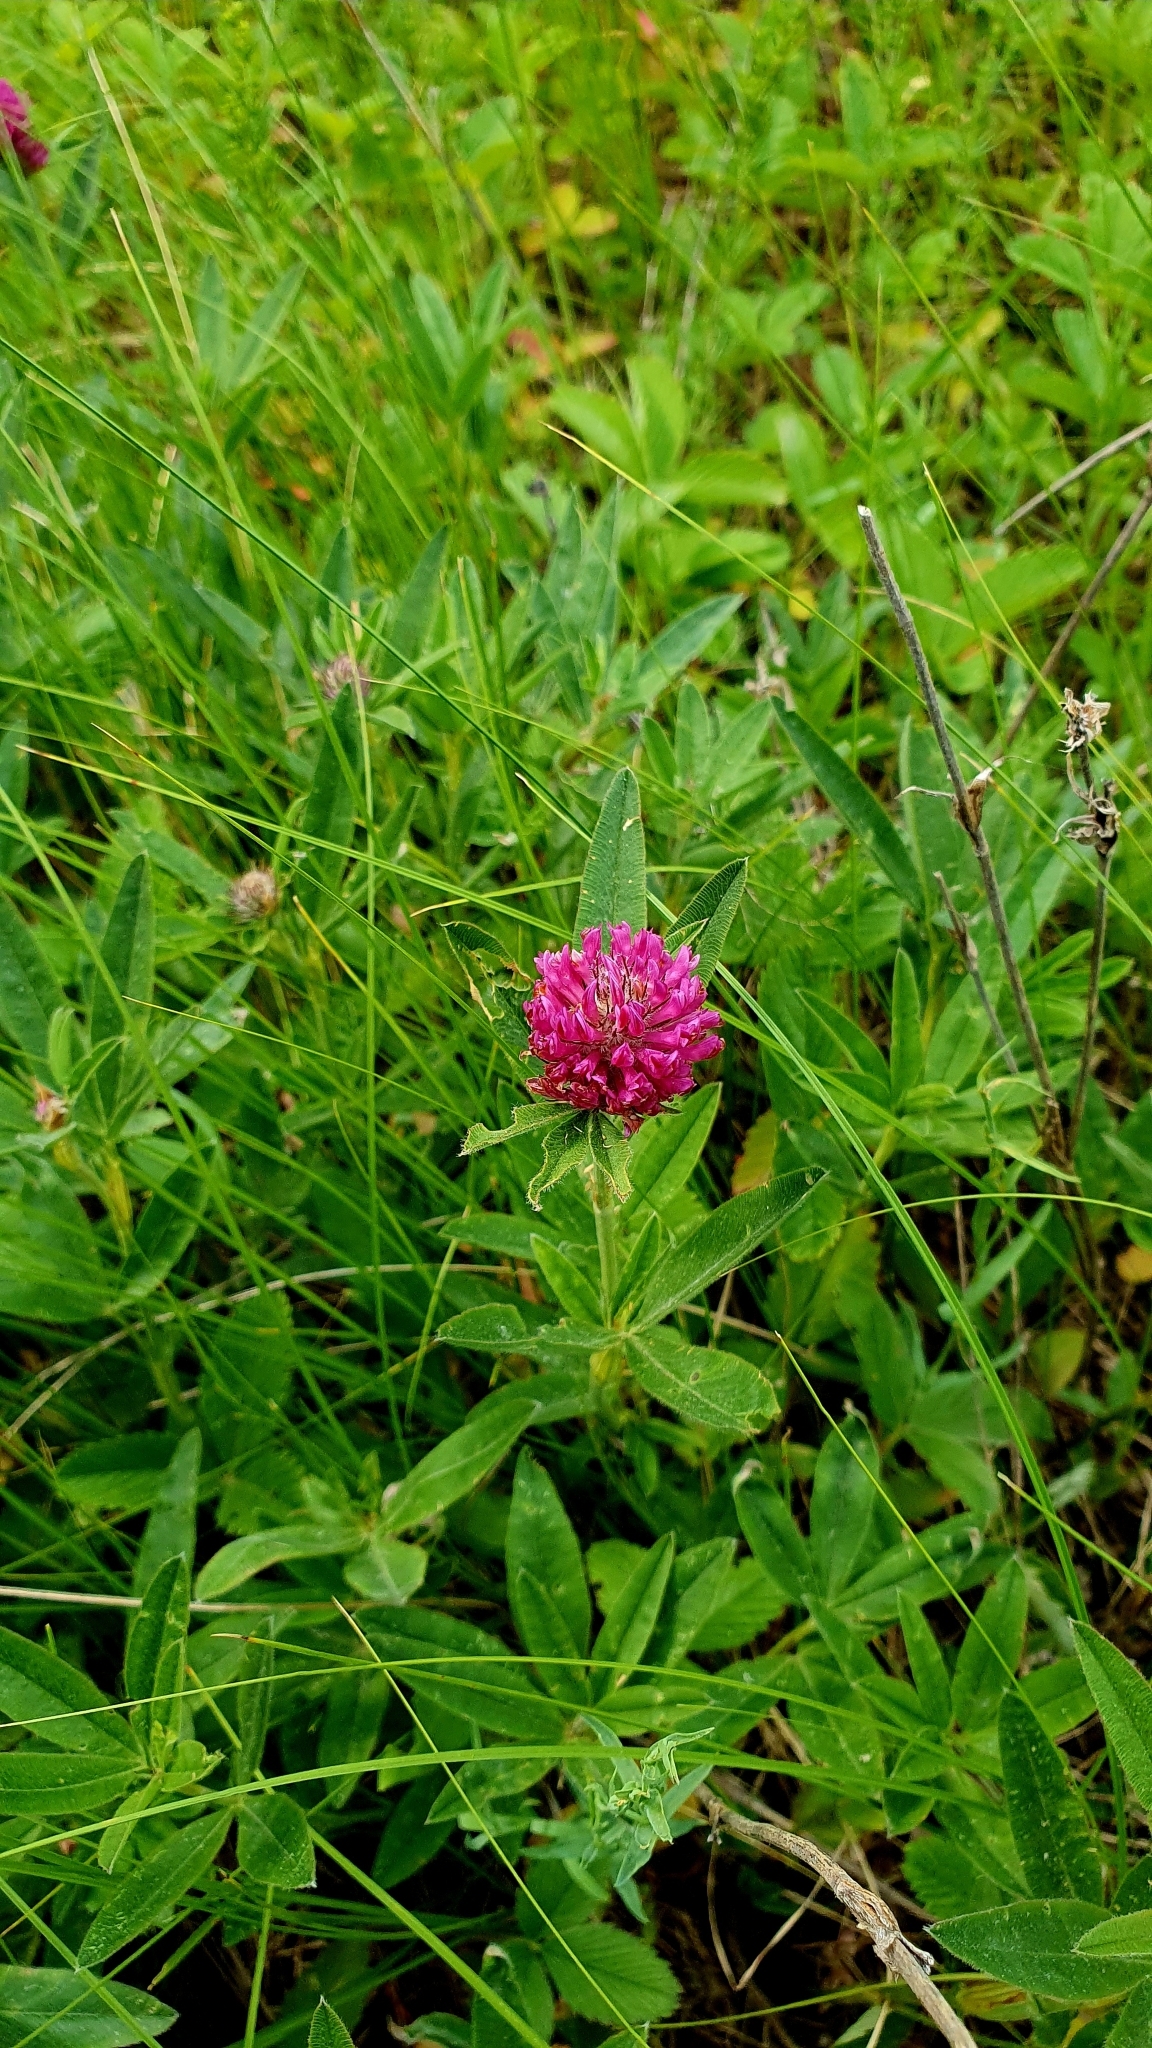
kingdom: Plantae
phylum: Tracheophyta
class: Magnoliopsida
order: Fabales
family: Fabaceae
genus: Trifolium
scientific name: Trifolium alpestre
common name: Owl-head clover
